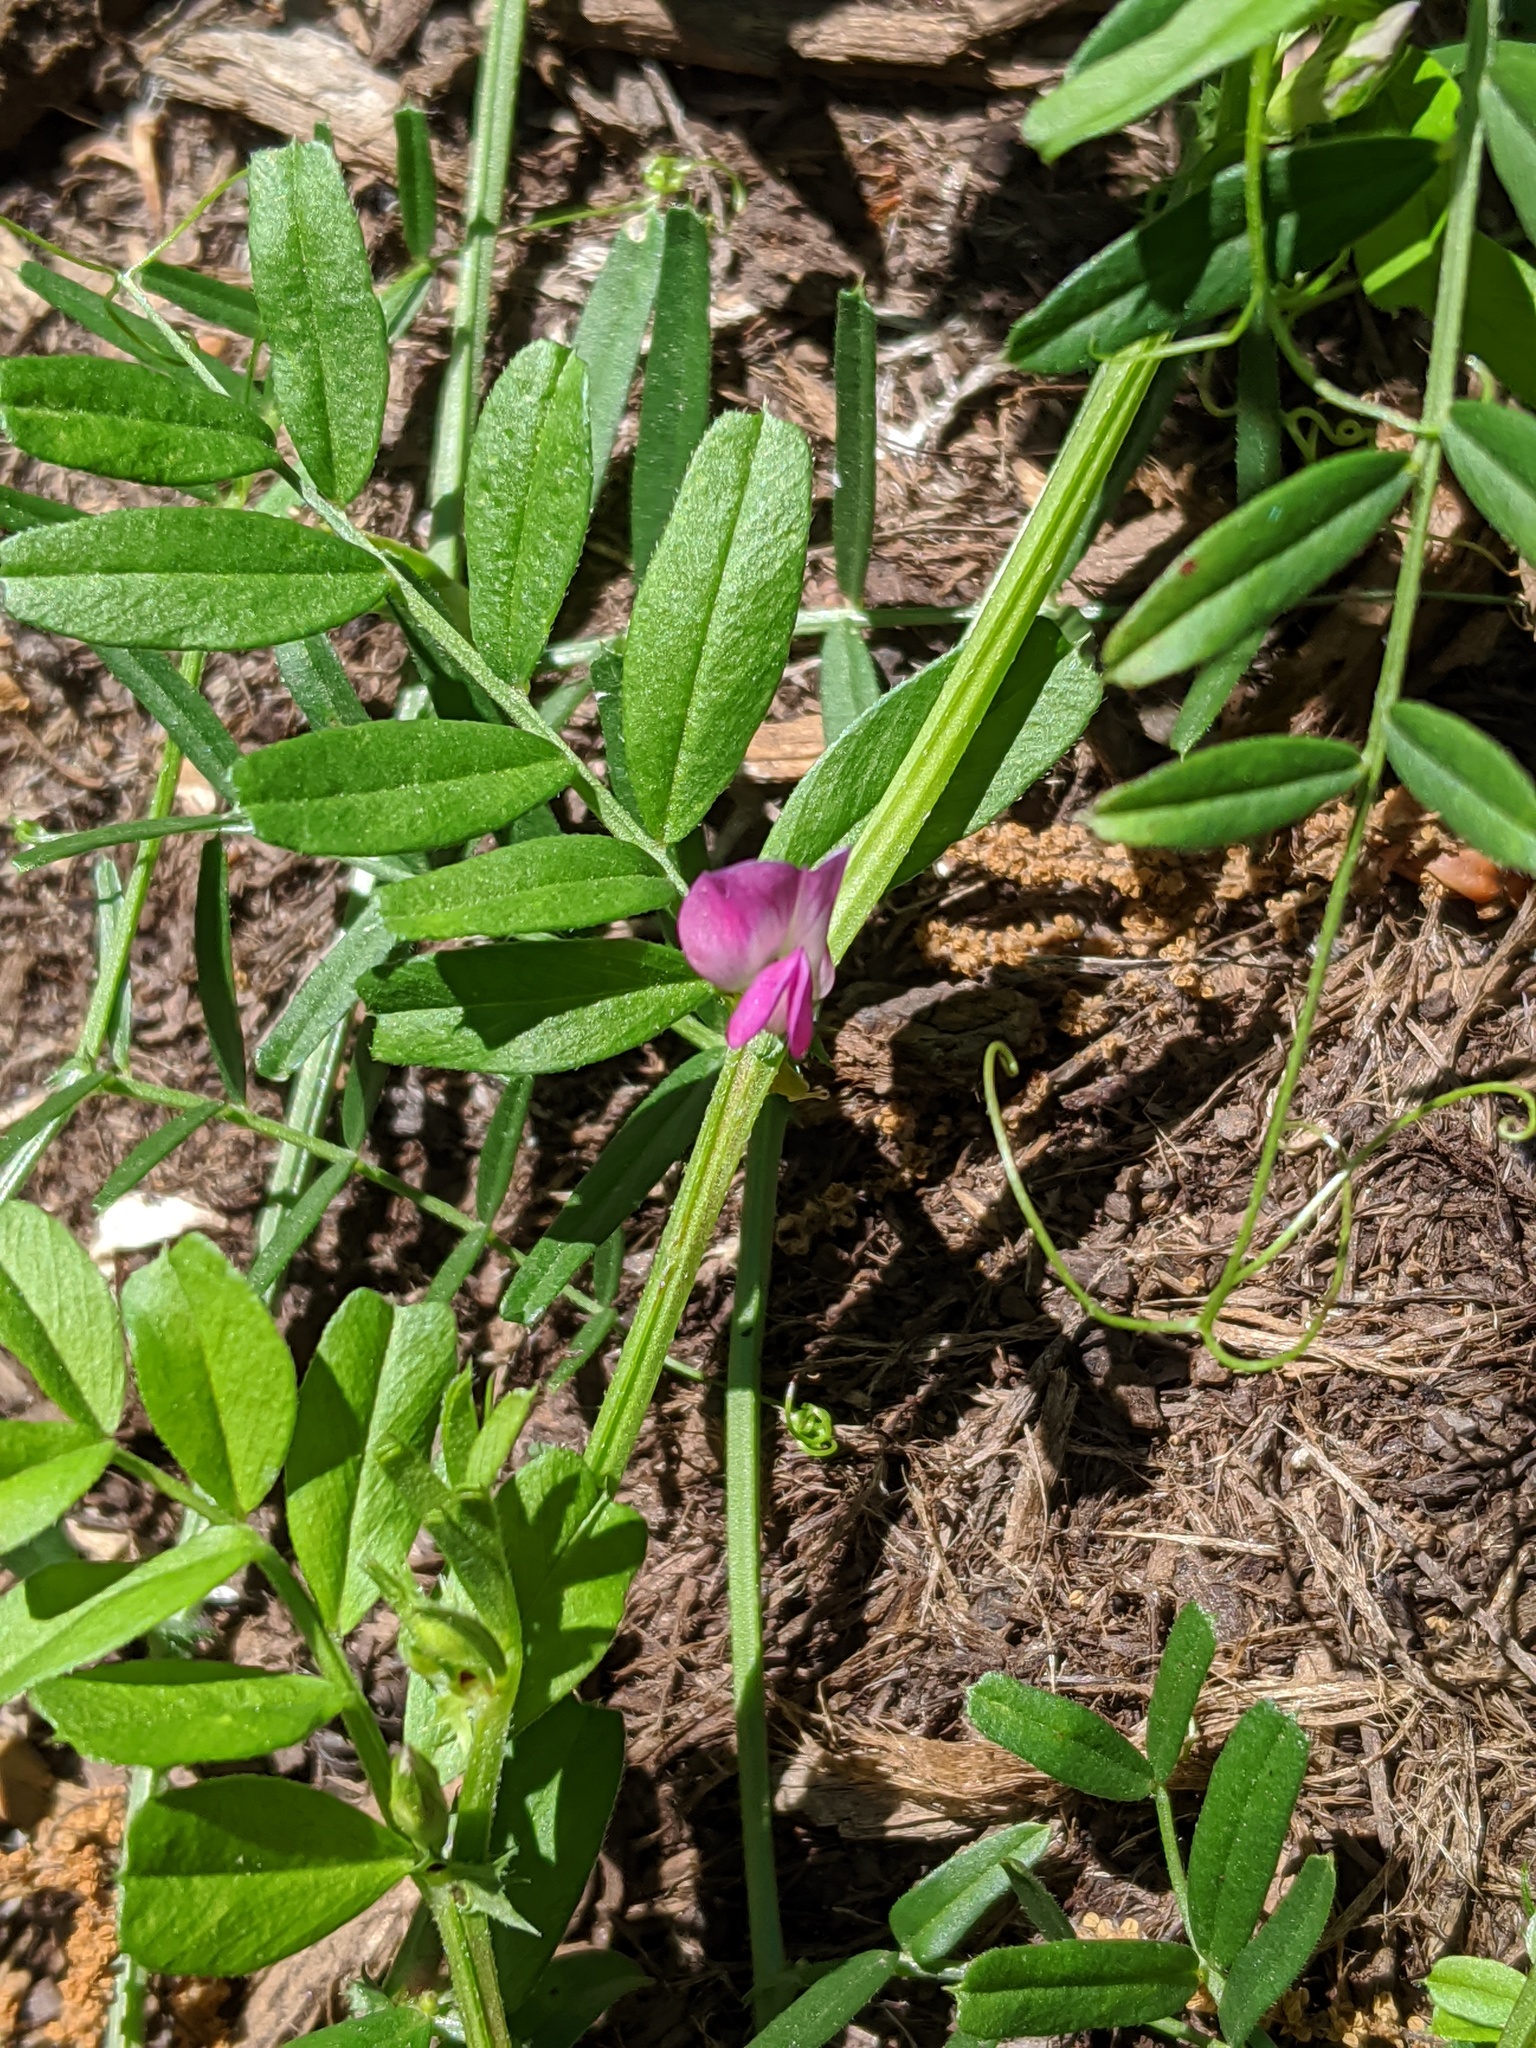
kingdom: Plantae
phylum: Tracheophyta
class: Magnoliopsida
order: Fabales
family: Fabaceae
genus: Vicia
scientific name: Vicia sativa
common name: Garden vetch
